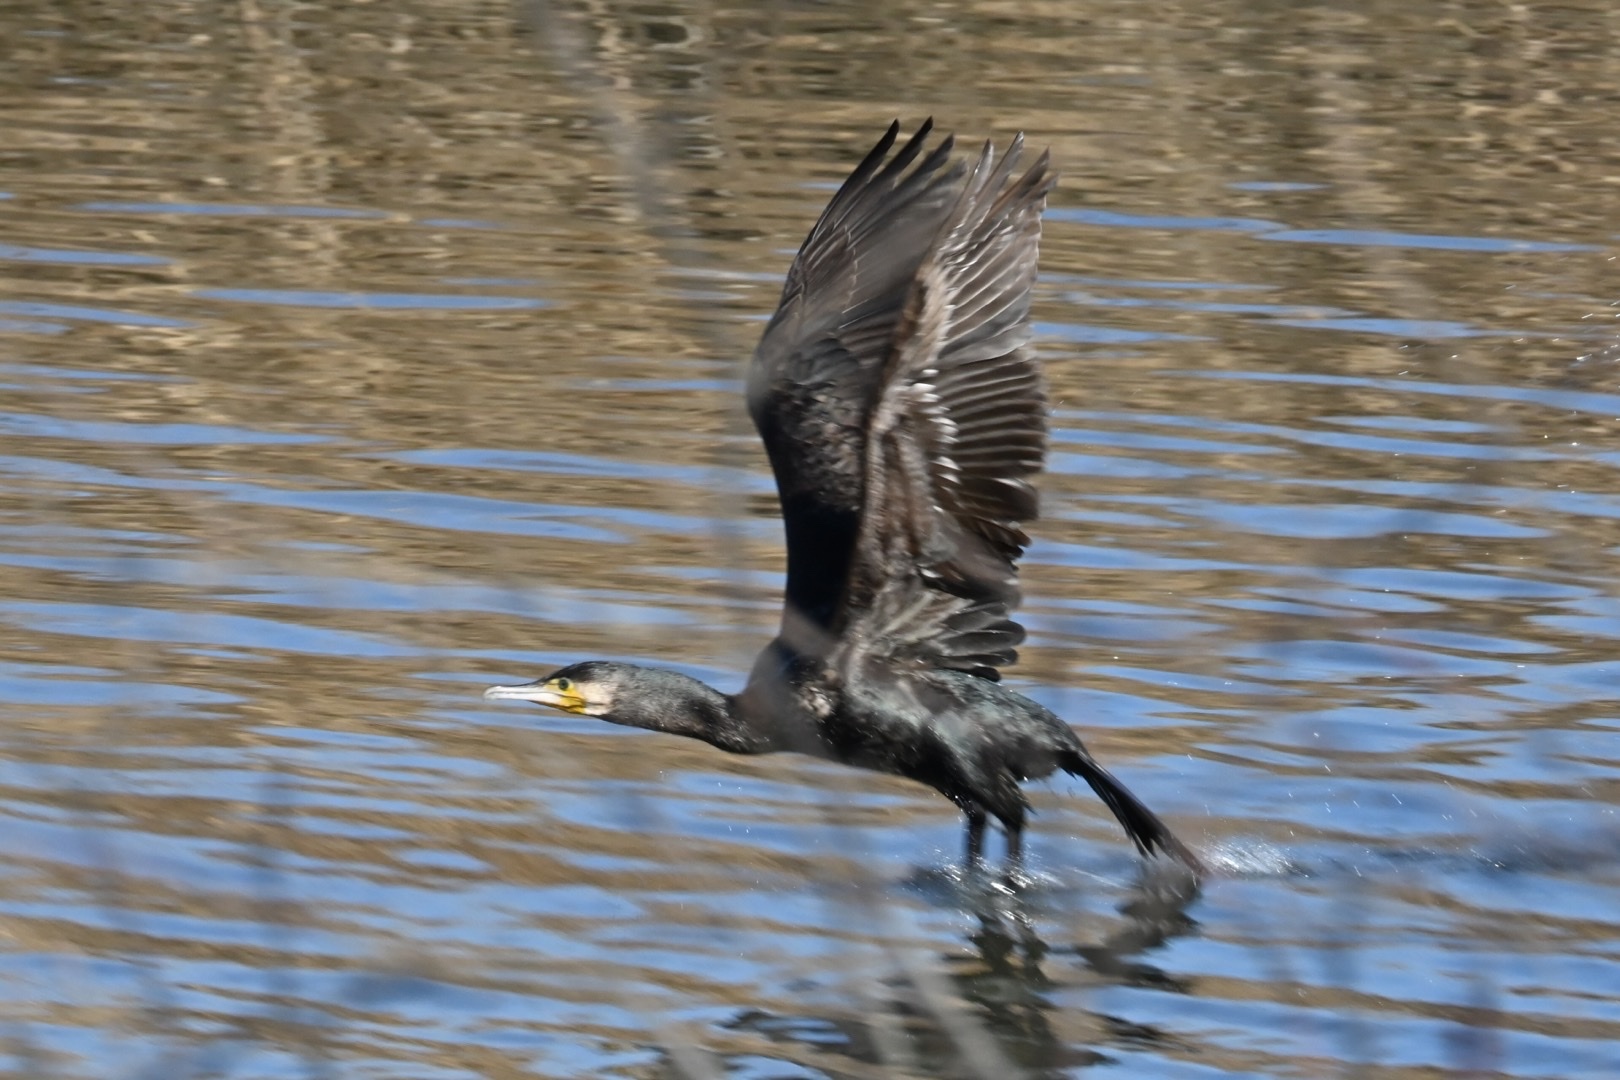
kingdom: Animalia
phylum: Chordata
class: Aves
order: Suliformes
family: Phalacrocoracidae
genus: Phalacrocorax
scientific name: Phalacrocorax carbo
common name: Great cormorant
